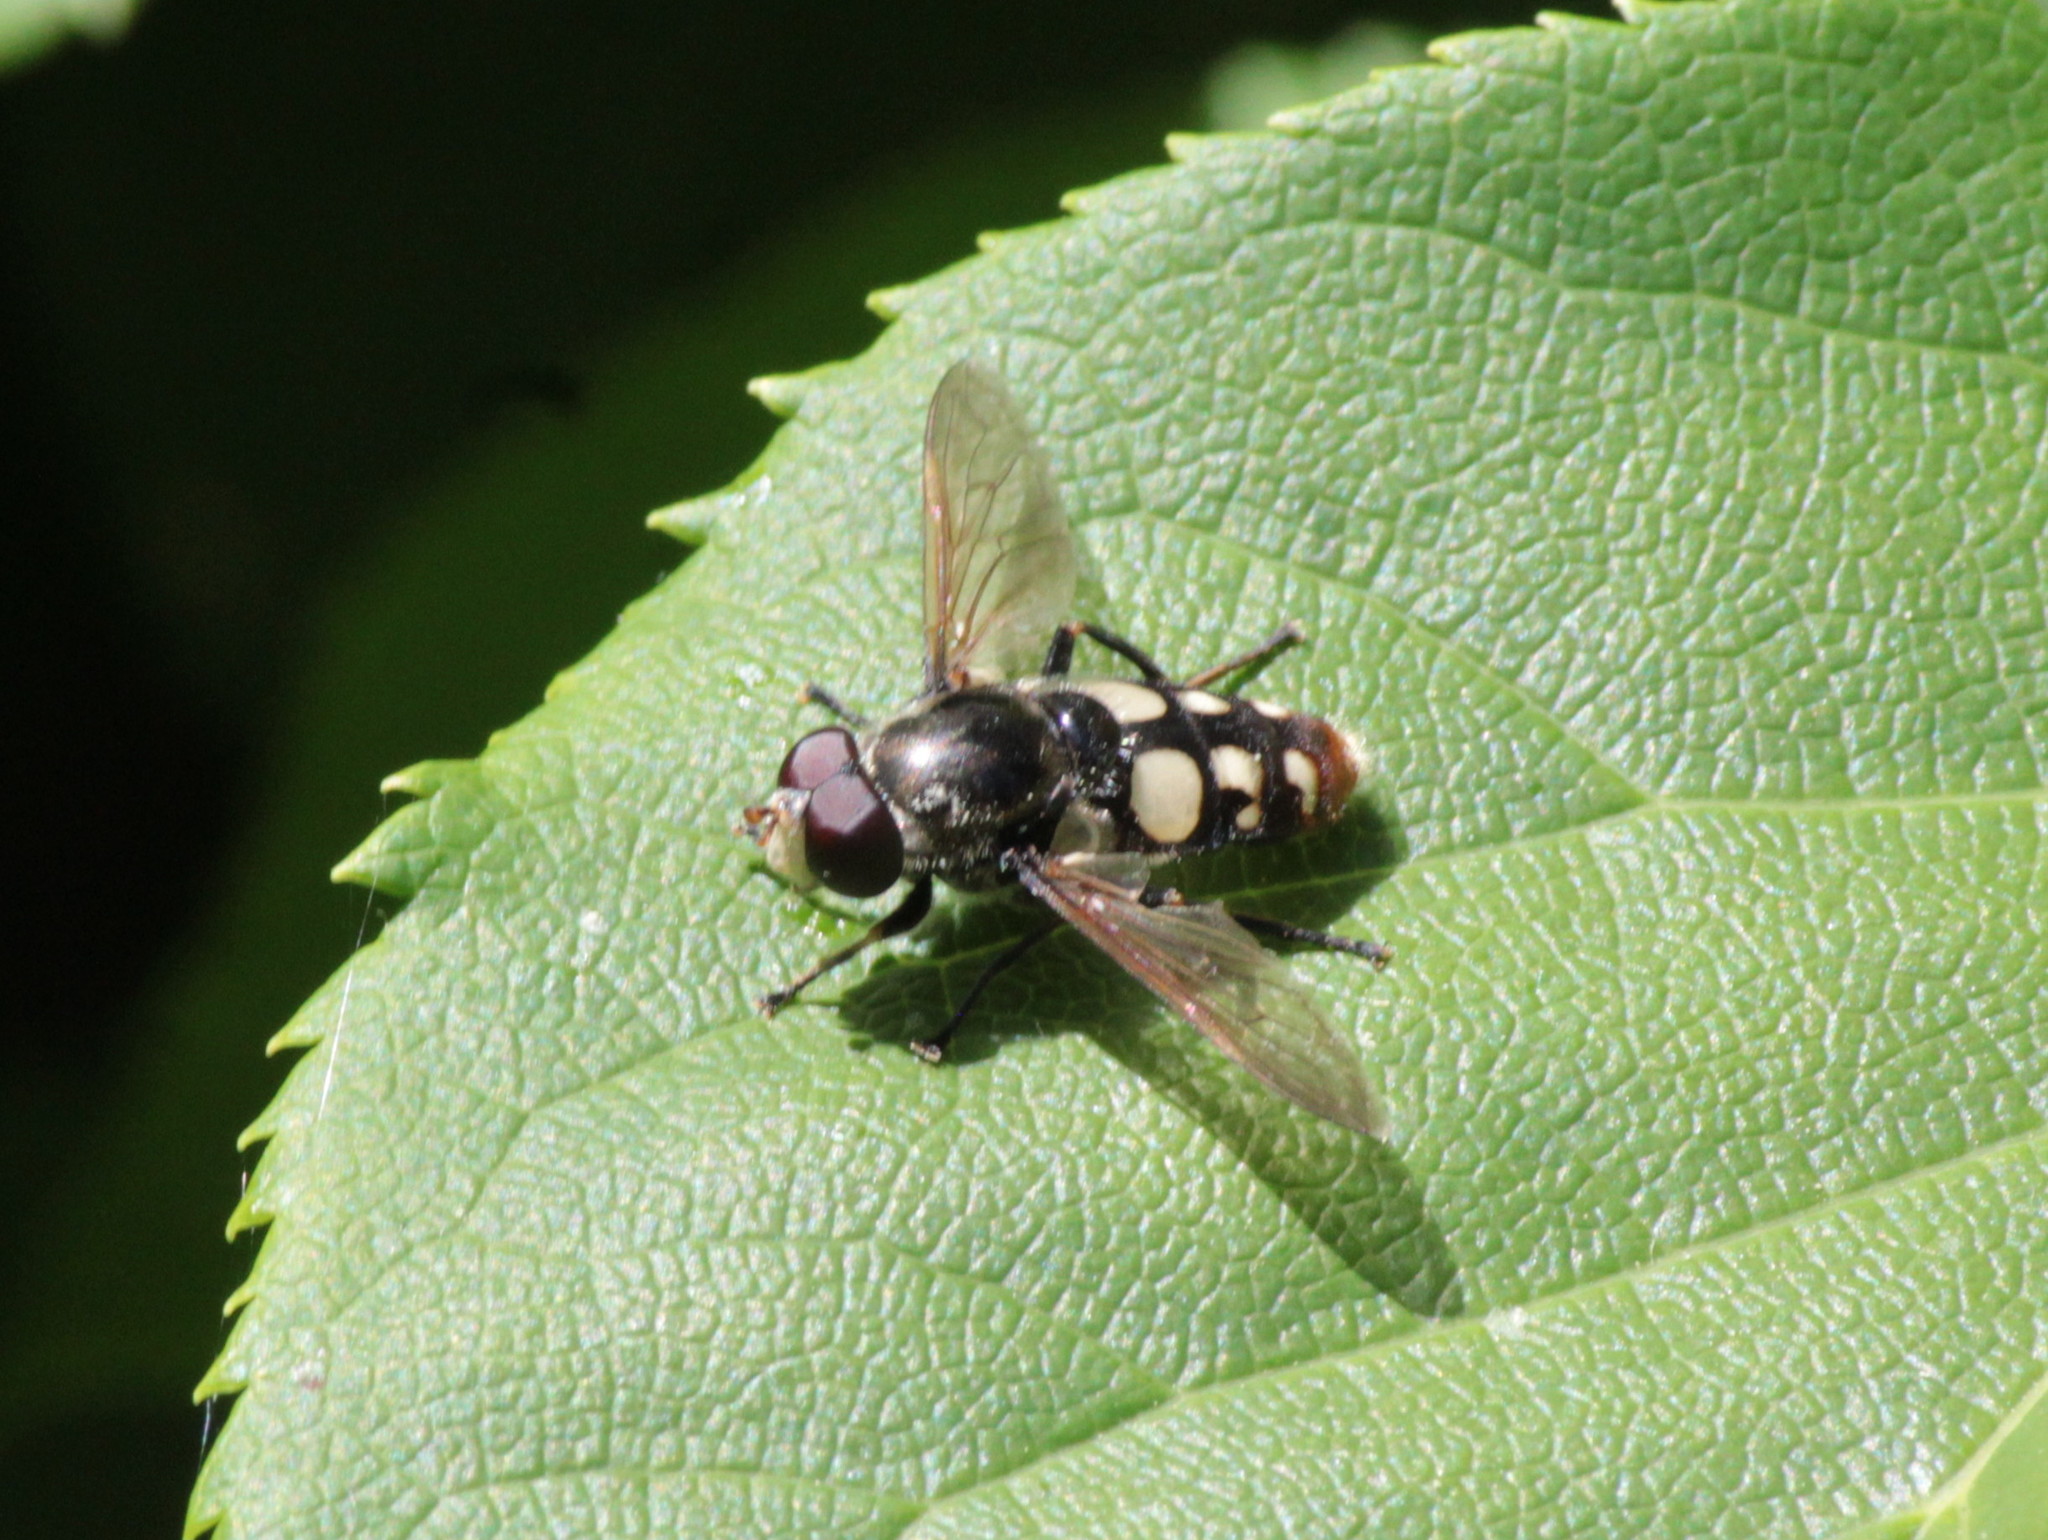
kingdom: Animalia
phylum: Arthropoda
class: Insecta
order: Diptera
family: Syrphidae
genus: Sericomyia
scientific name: Sericomyia lata
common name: White-spotted pond fly
